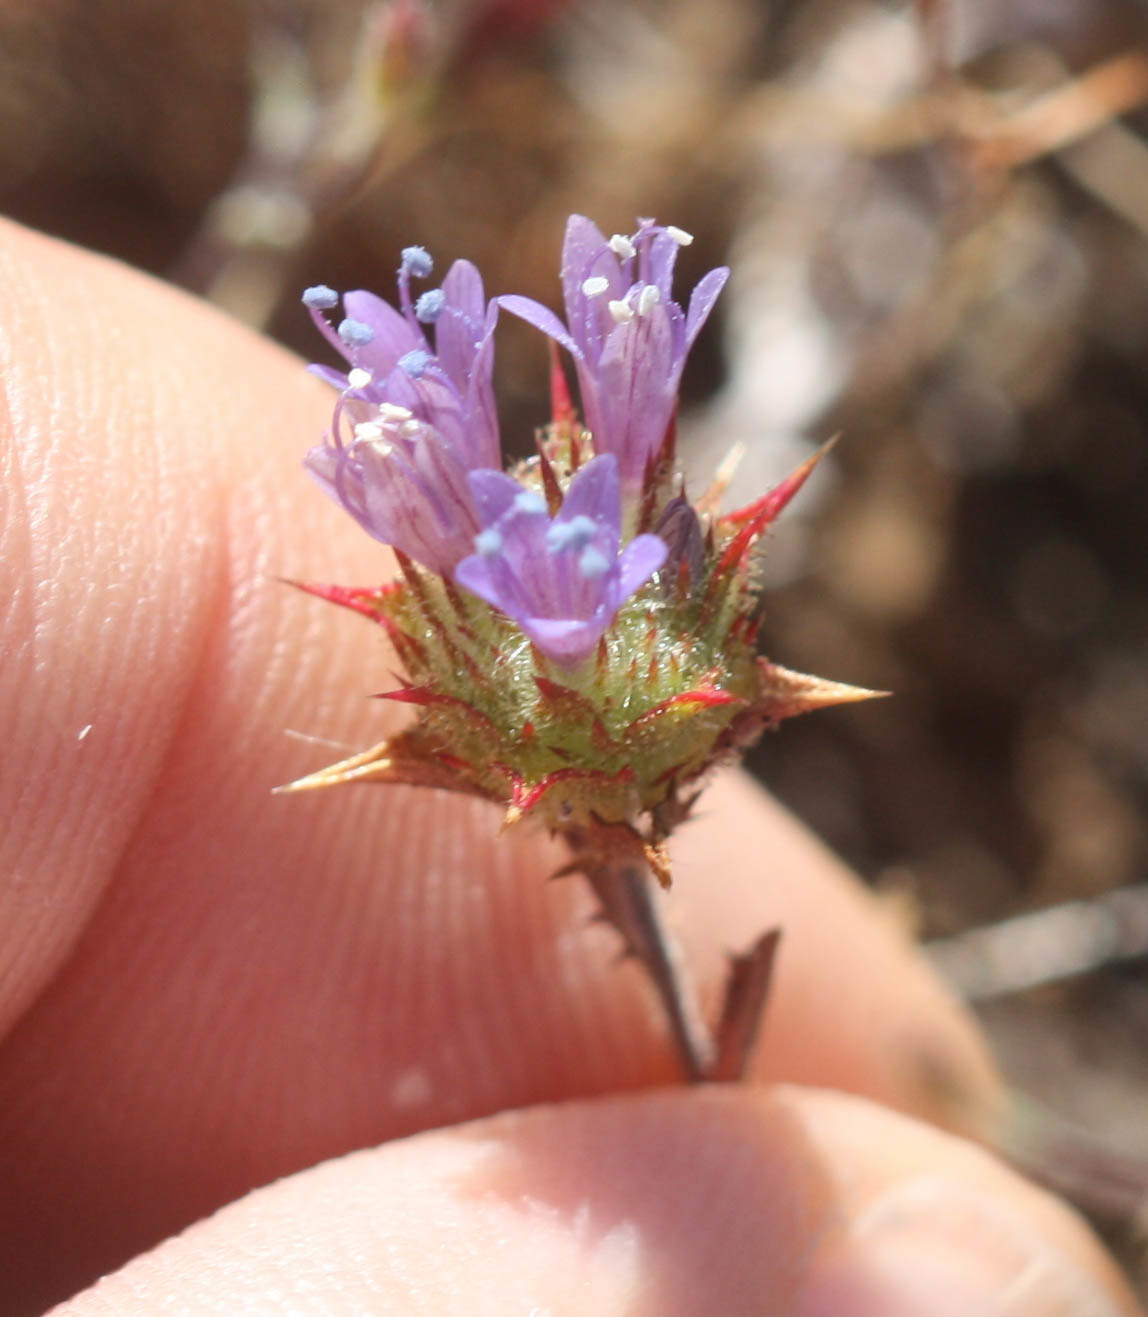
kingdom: Plantae
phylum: Tracheophyta
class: Magnoliopsida
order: Ericales
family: Polemoniaceae
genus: Navarretia
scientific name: Navarretia heterodoxa
